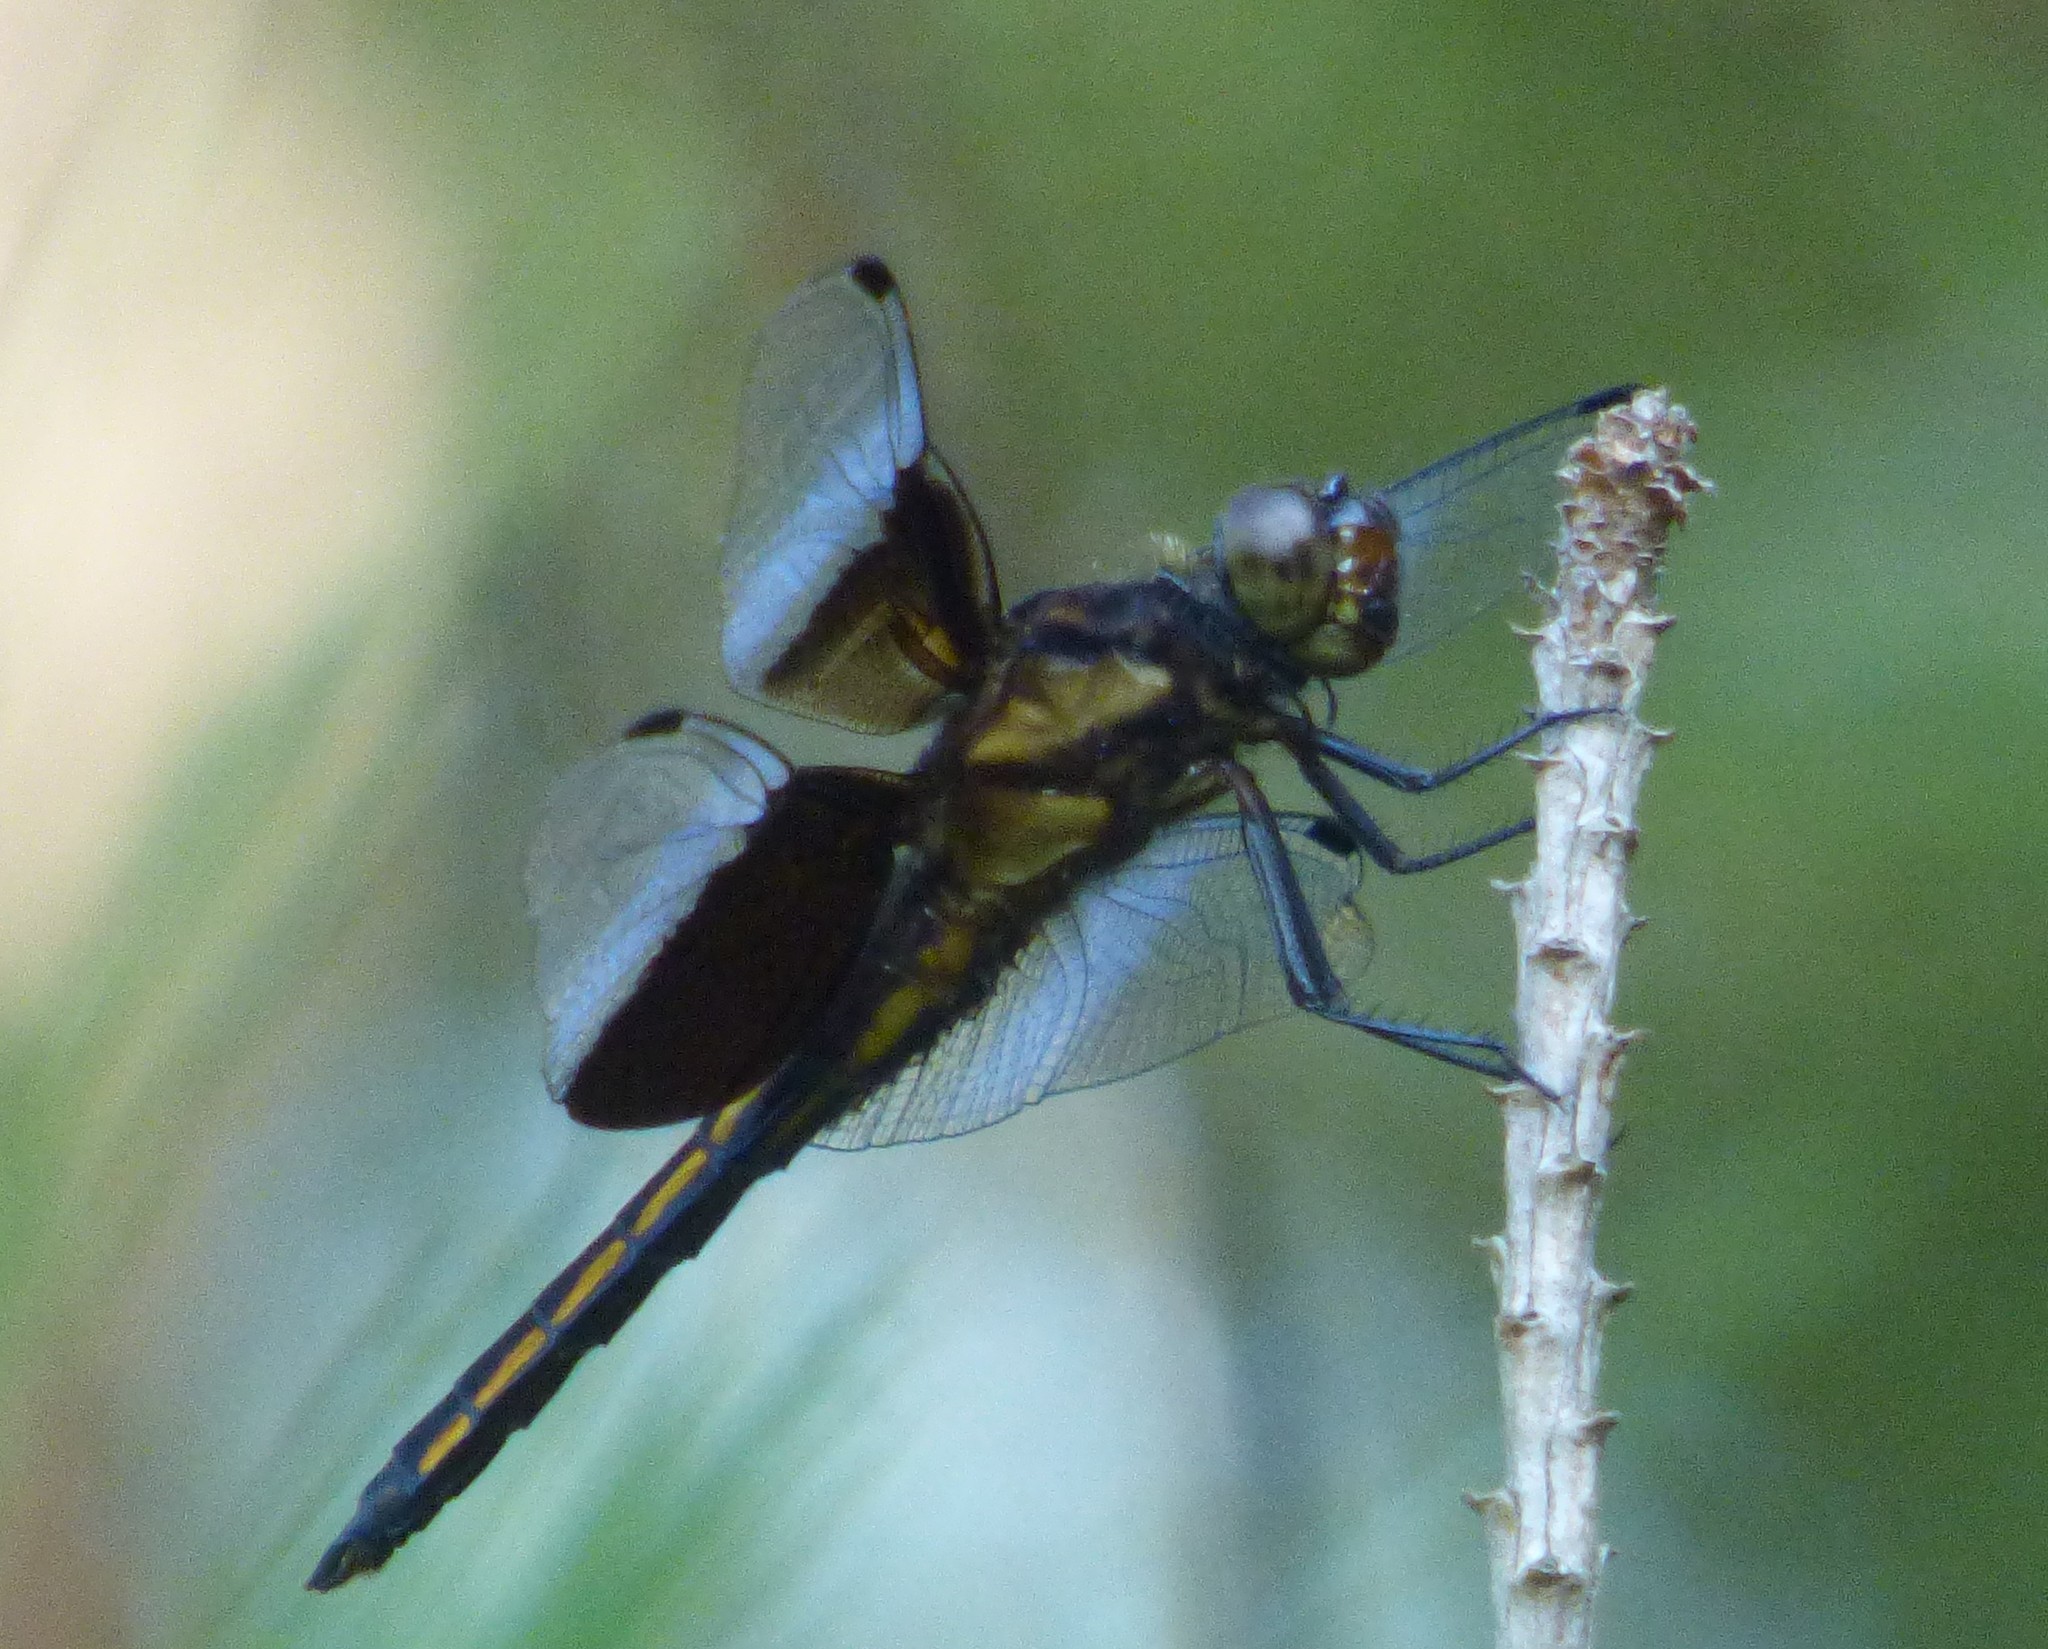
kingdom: Animalia
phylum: Arthropoda
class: Insecta
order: Odonata
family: Libellulidae
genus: Libellula
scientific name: Libellula luctuosa
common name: Widow skimmer
